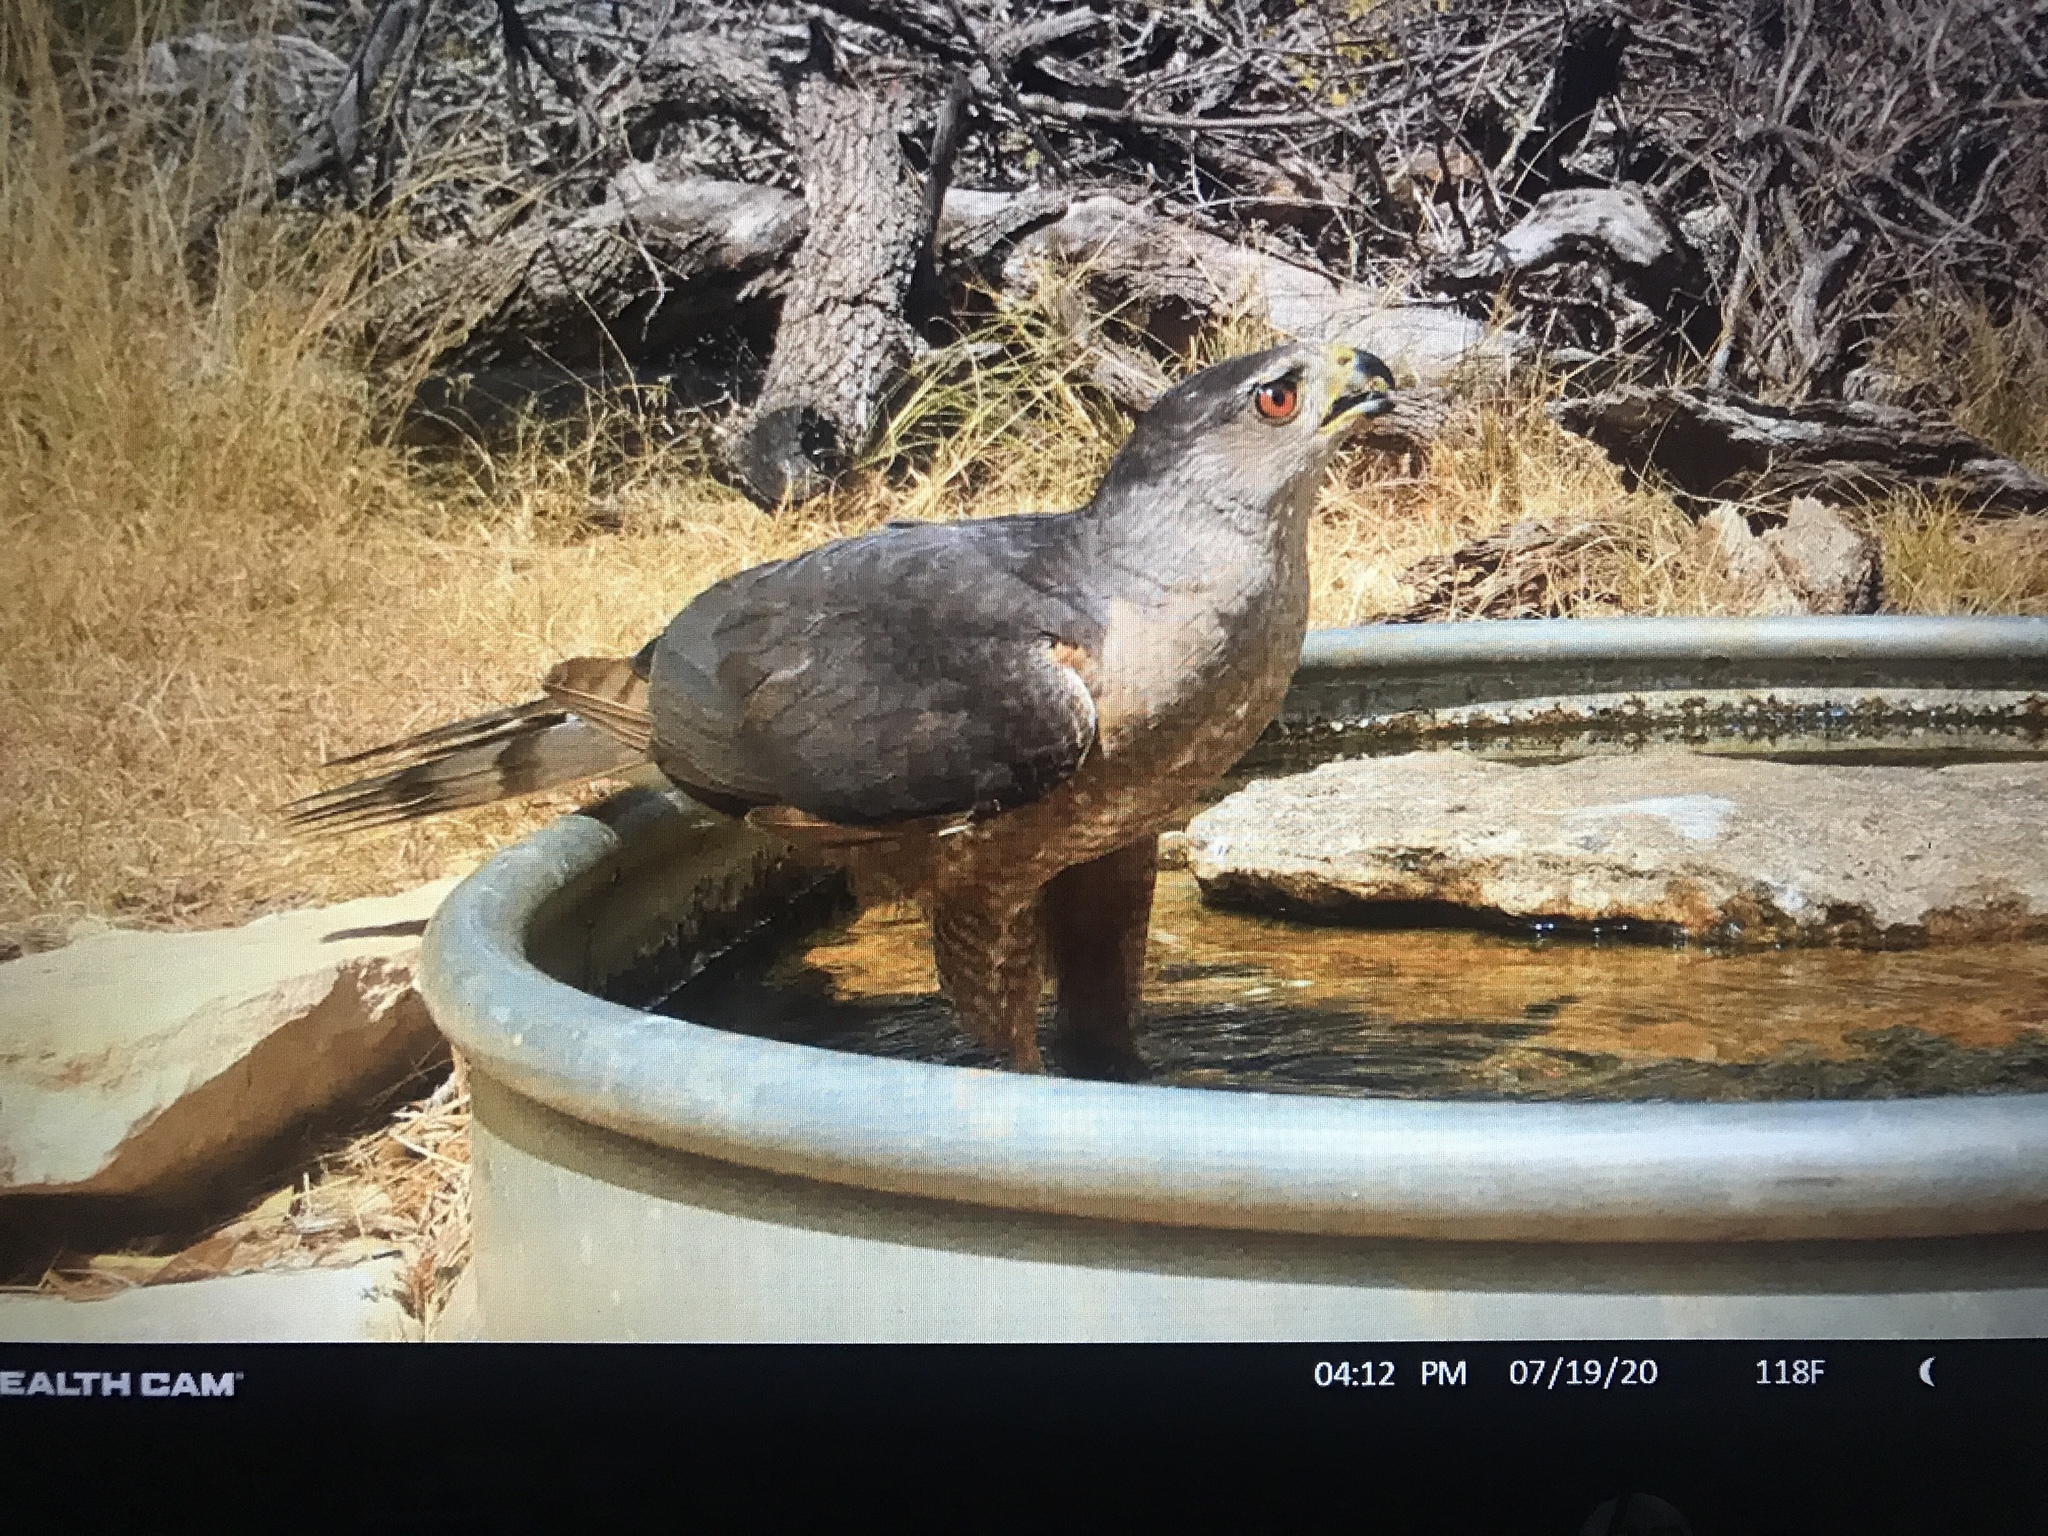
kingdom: Animalia
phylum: Chordata
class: Aves
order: Accipitriformes
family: Accipitridae
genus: Accipiter
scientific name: Accipiter cooperii
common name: Cooper's hawk
